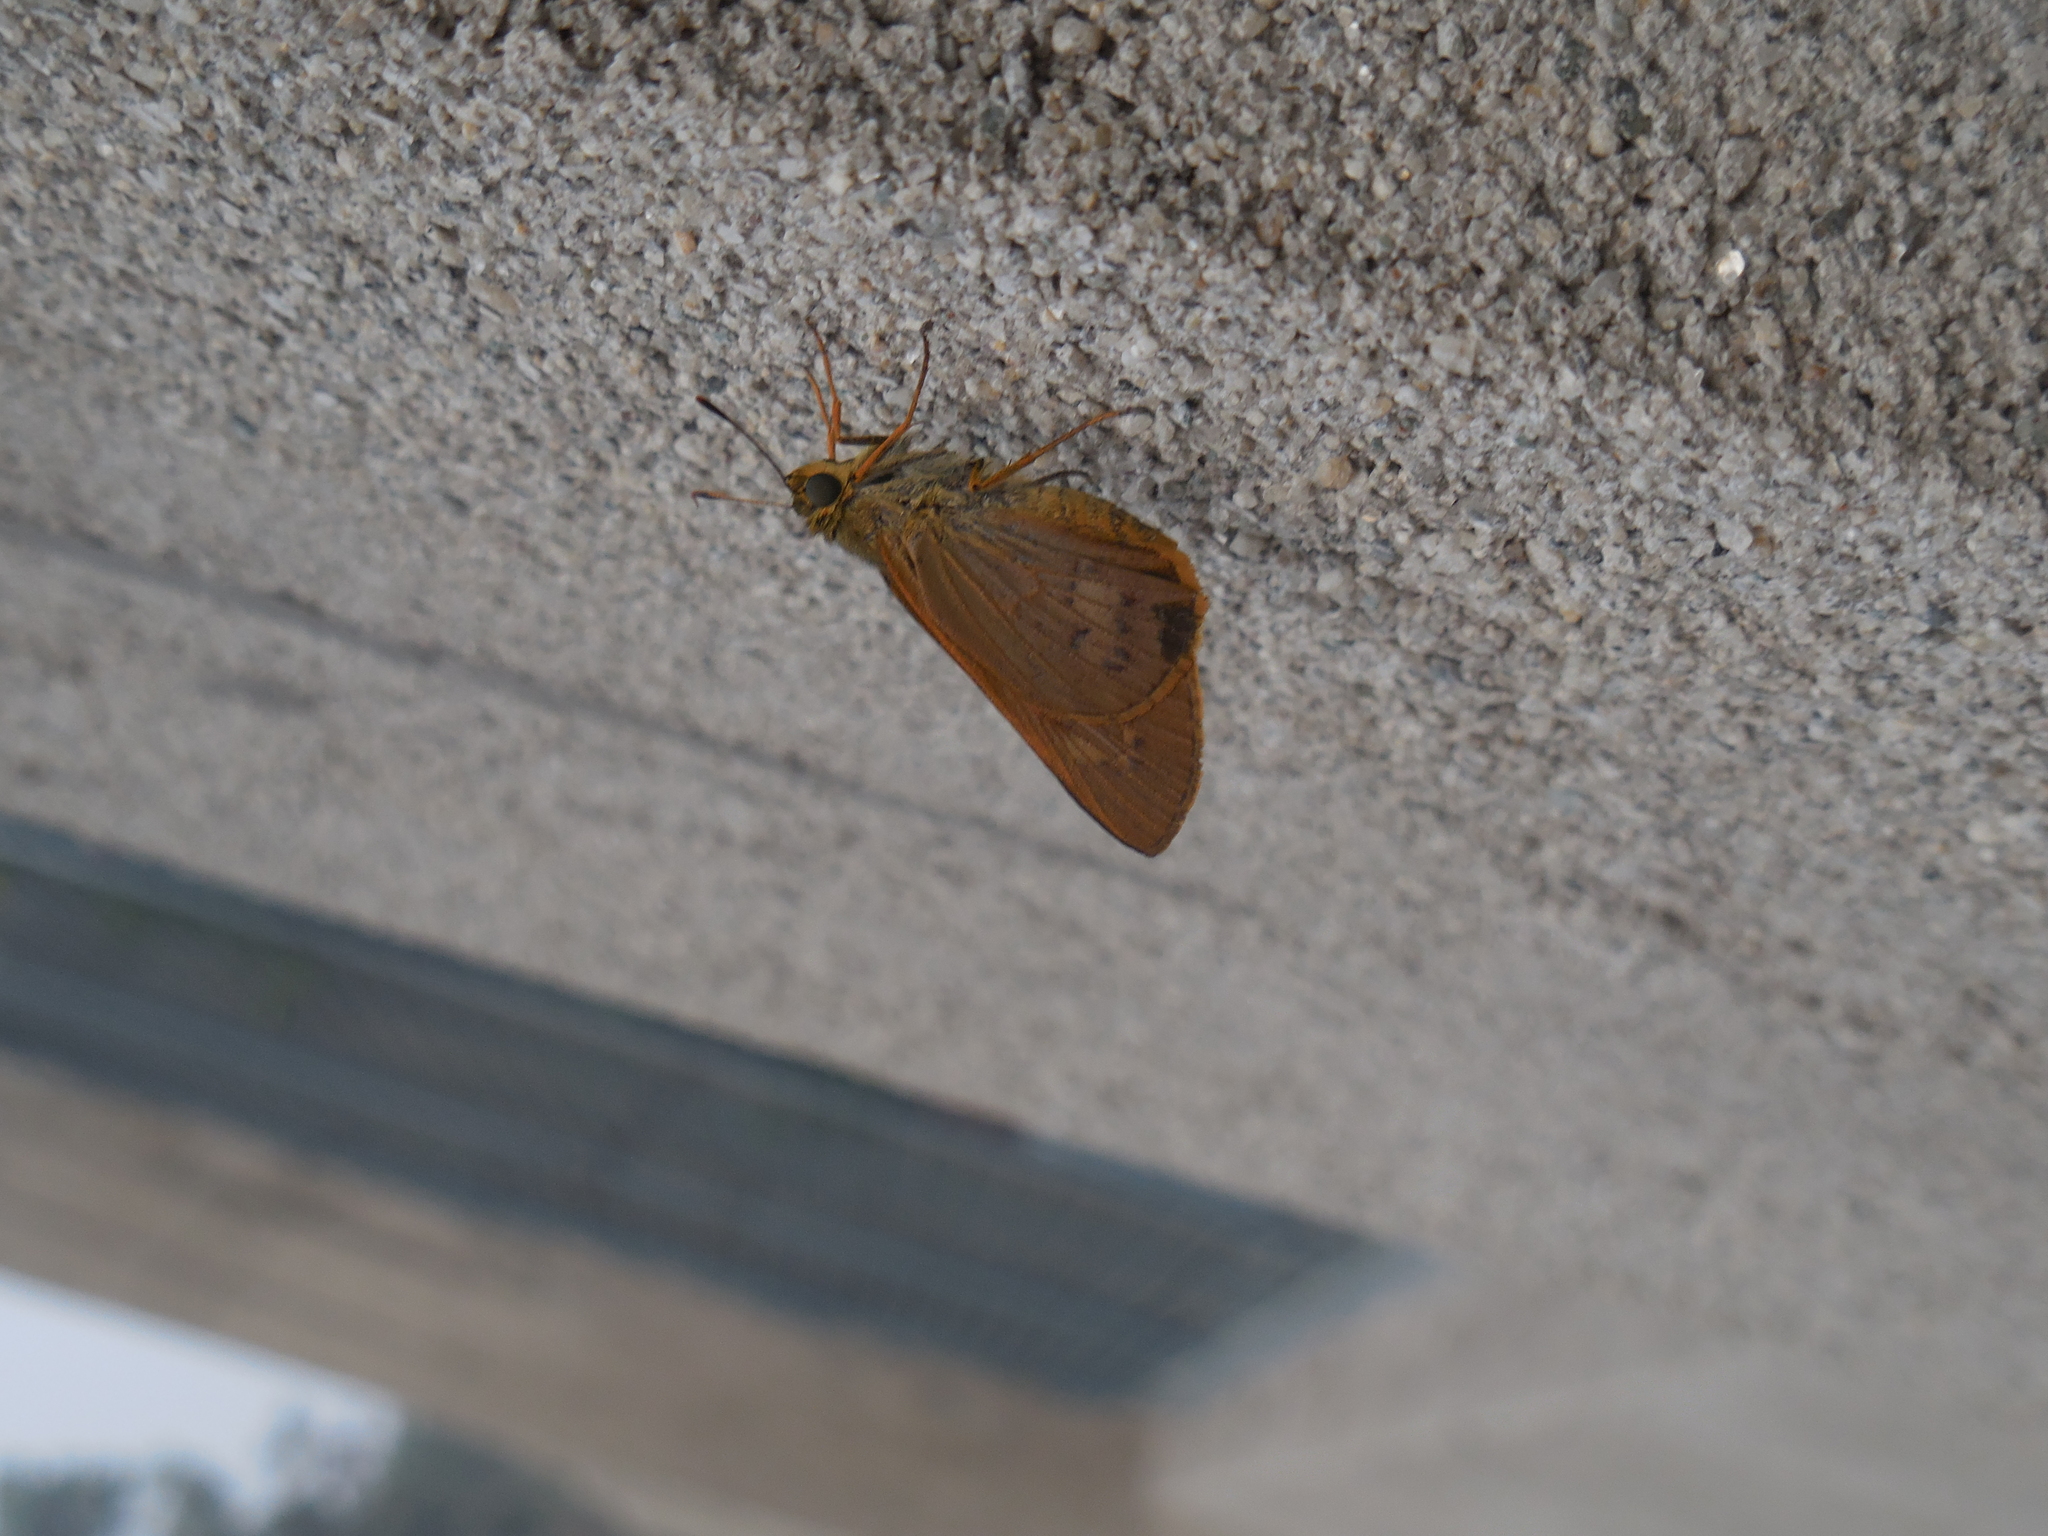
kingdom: Animalia
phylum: Arthropoda
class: Insecta
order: Lepidoptera
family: Hesperiidae
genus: Cephrenes
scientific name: Cephrenes
